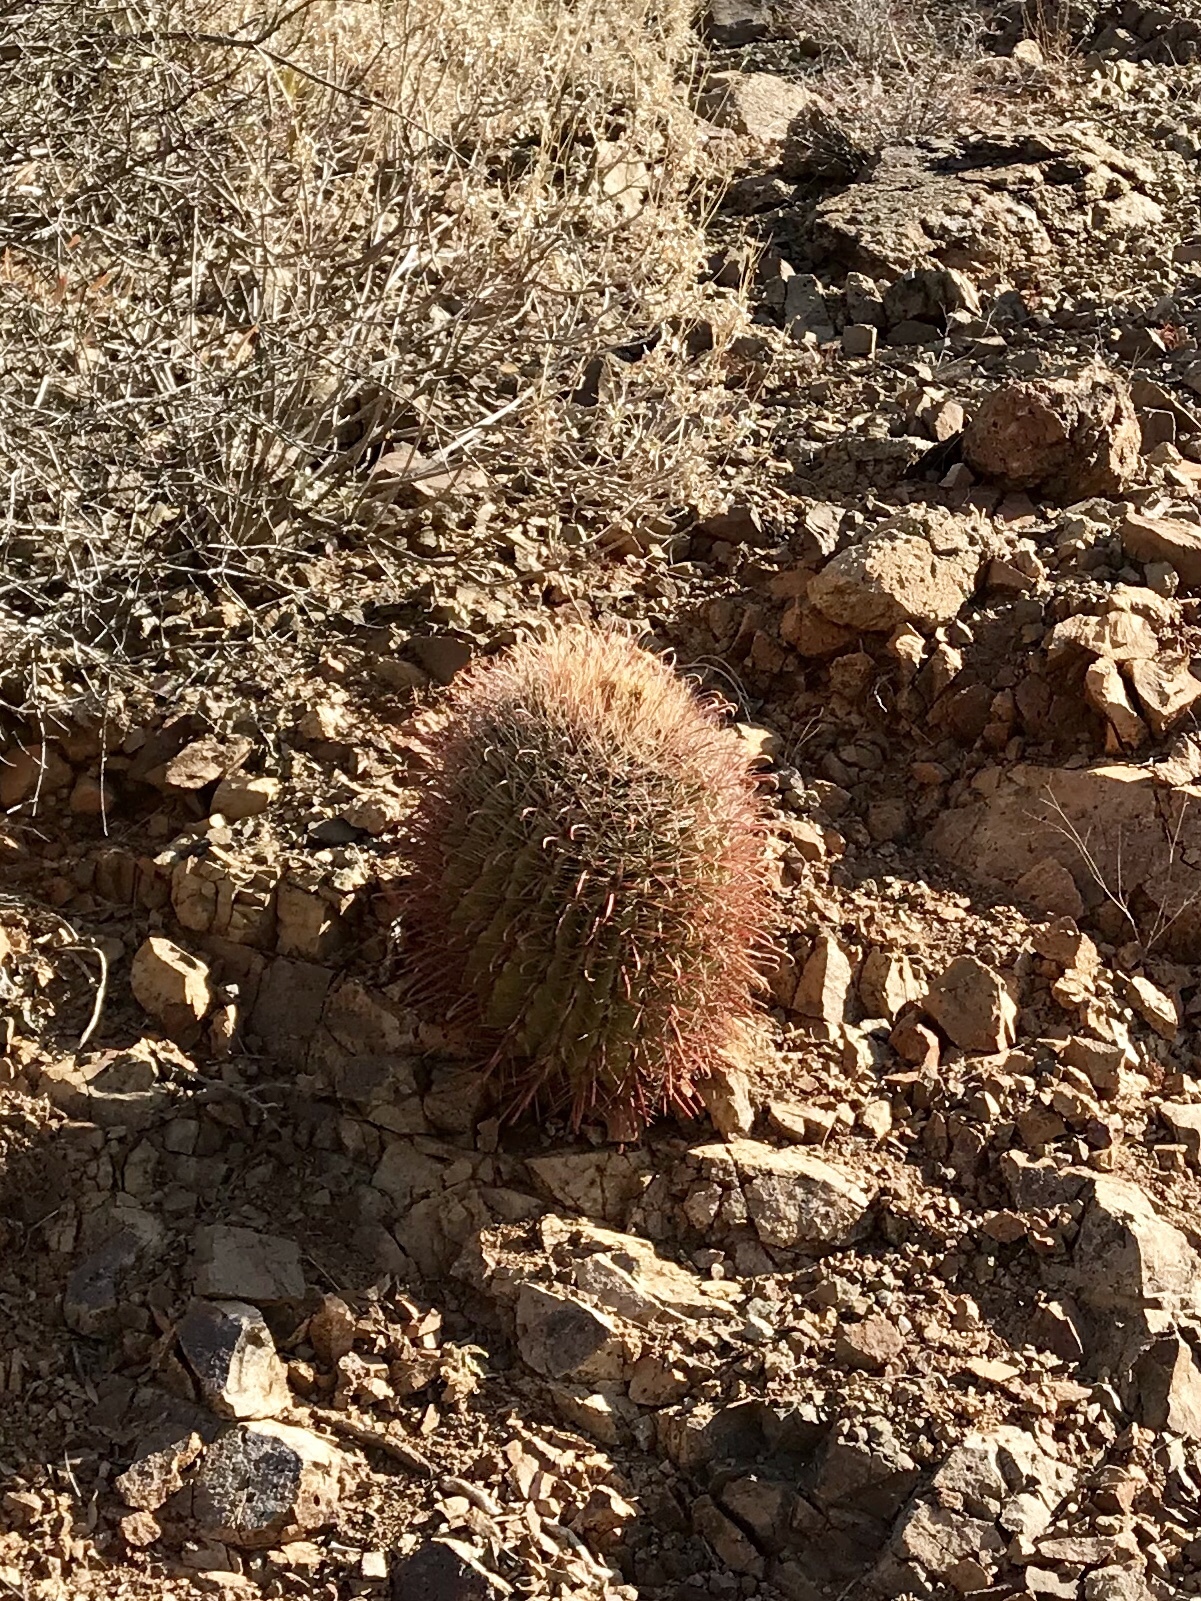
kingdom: Plantae
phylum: Tracheophyta
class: Magnoliopsida
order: Caryophyllales
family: Cactaceae
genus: Ferocactus
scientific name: Ferocactus wislizeni
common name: Candy barrel cactus
